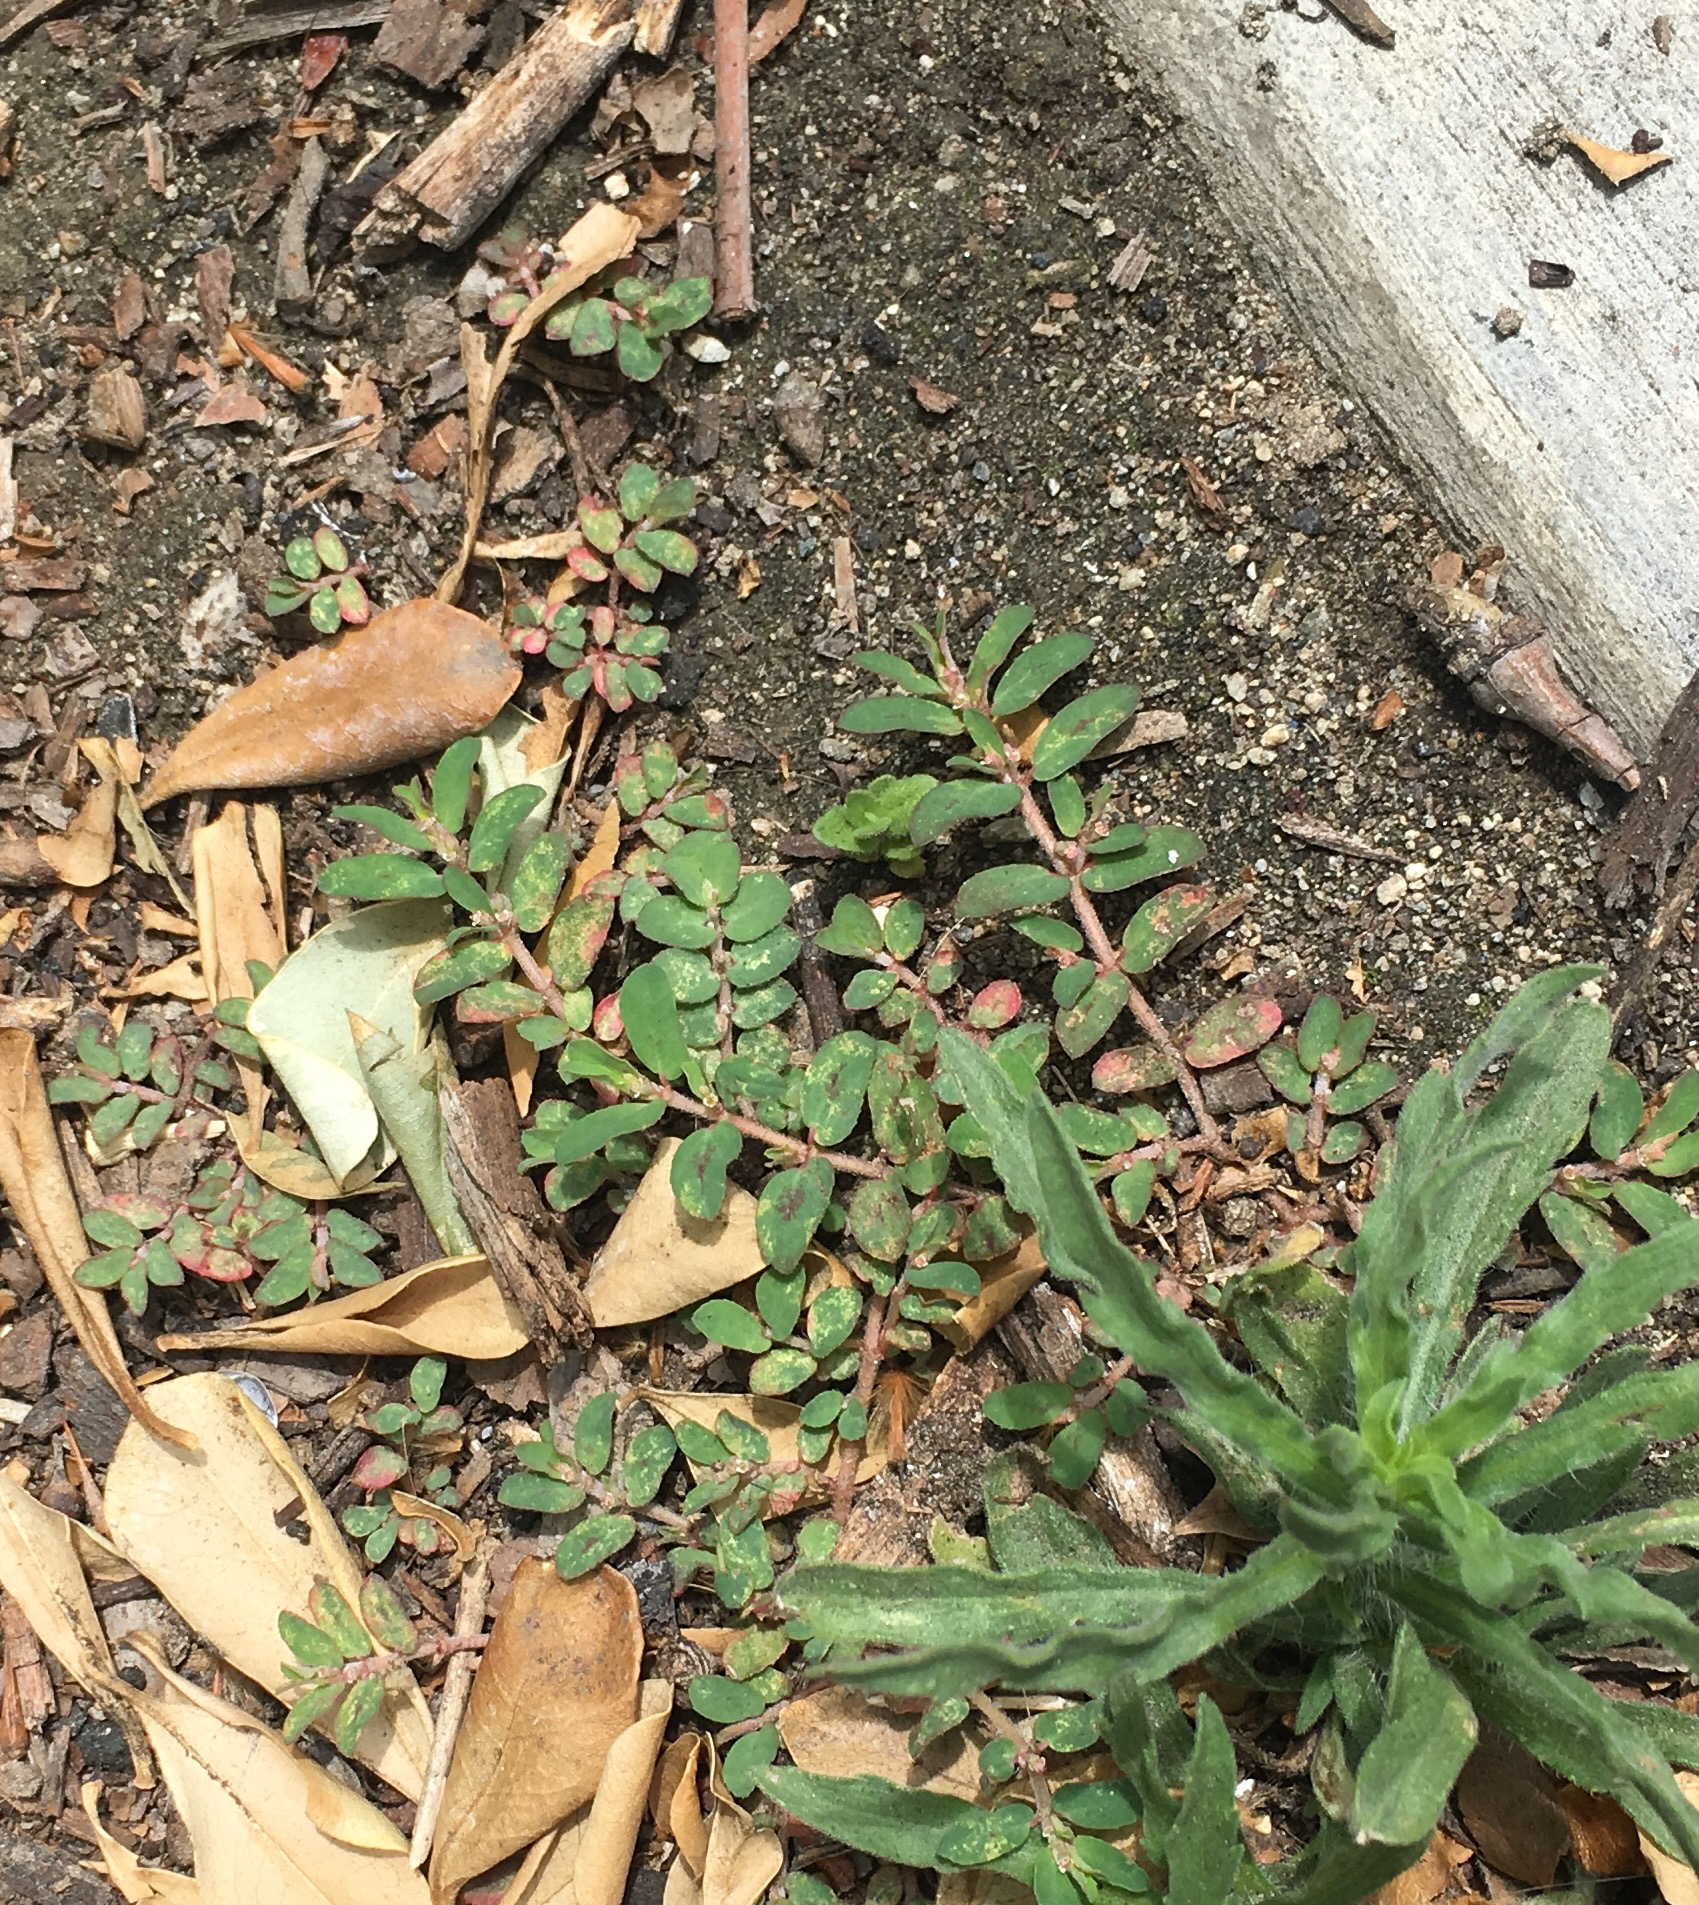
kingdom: Plantae
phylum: Tracheophyta
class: Magnoliopsida
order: Malpighiales
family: Euphorbiaceae
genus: Euphorbia
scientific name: Euphorbia maculata
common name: Spotted spurge
